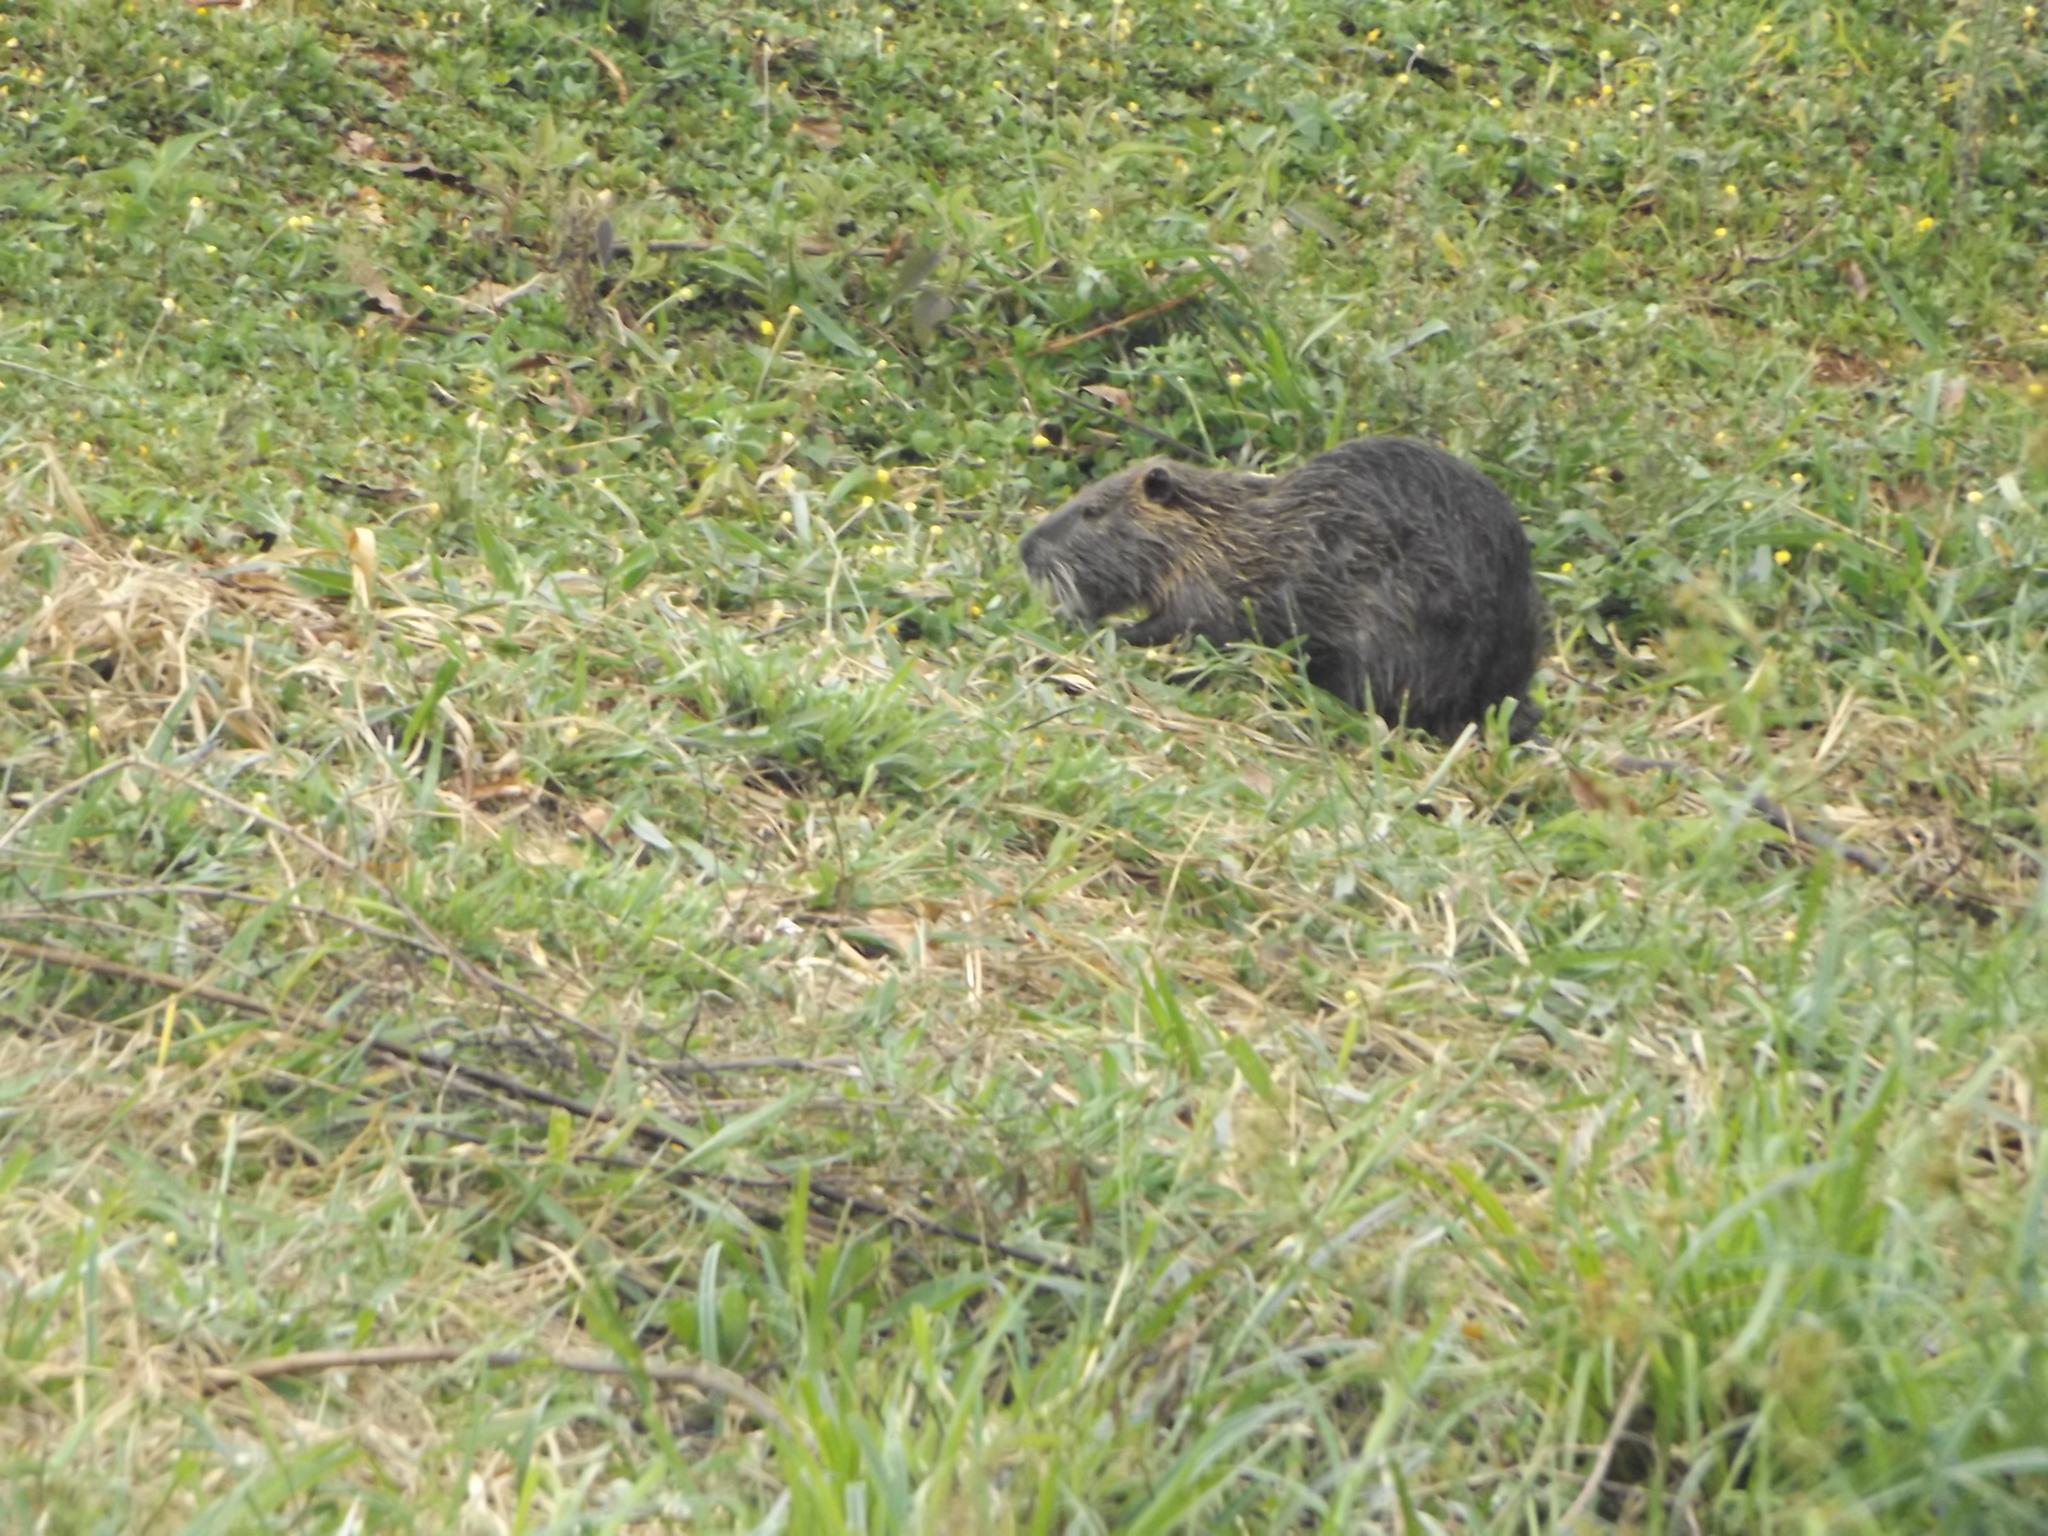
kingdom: Animalia
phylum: Chordata
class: Mammalia
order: Rodentia
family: Myocastoridae
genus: Myocastor
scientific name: Myocastor coypus
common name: Coypu
